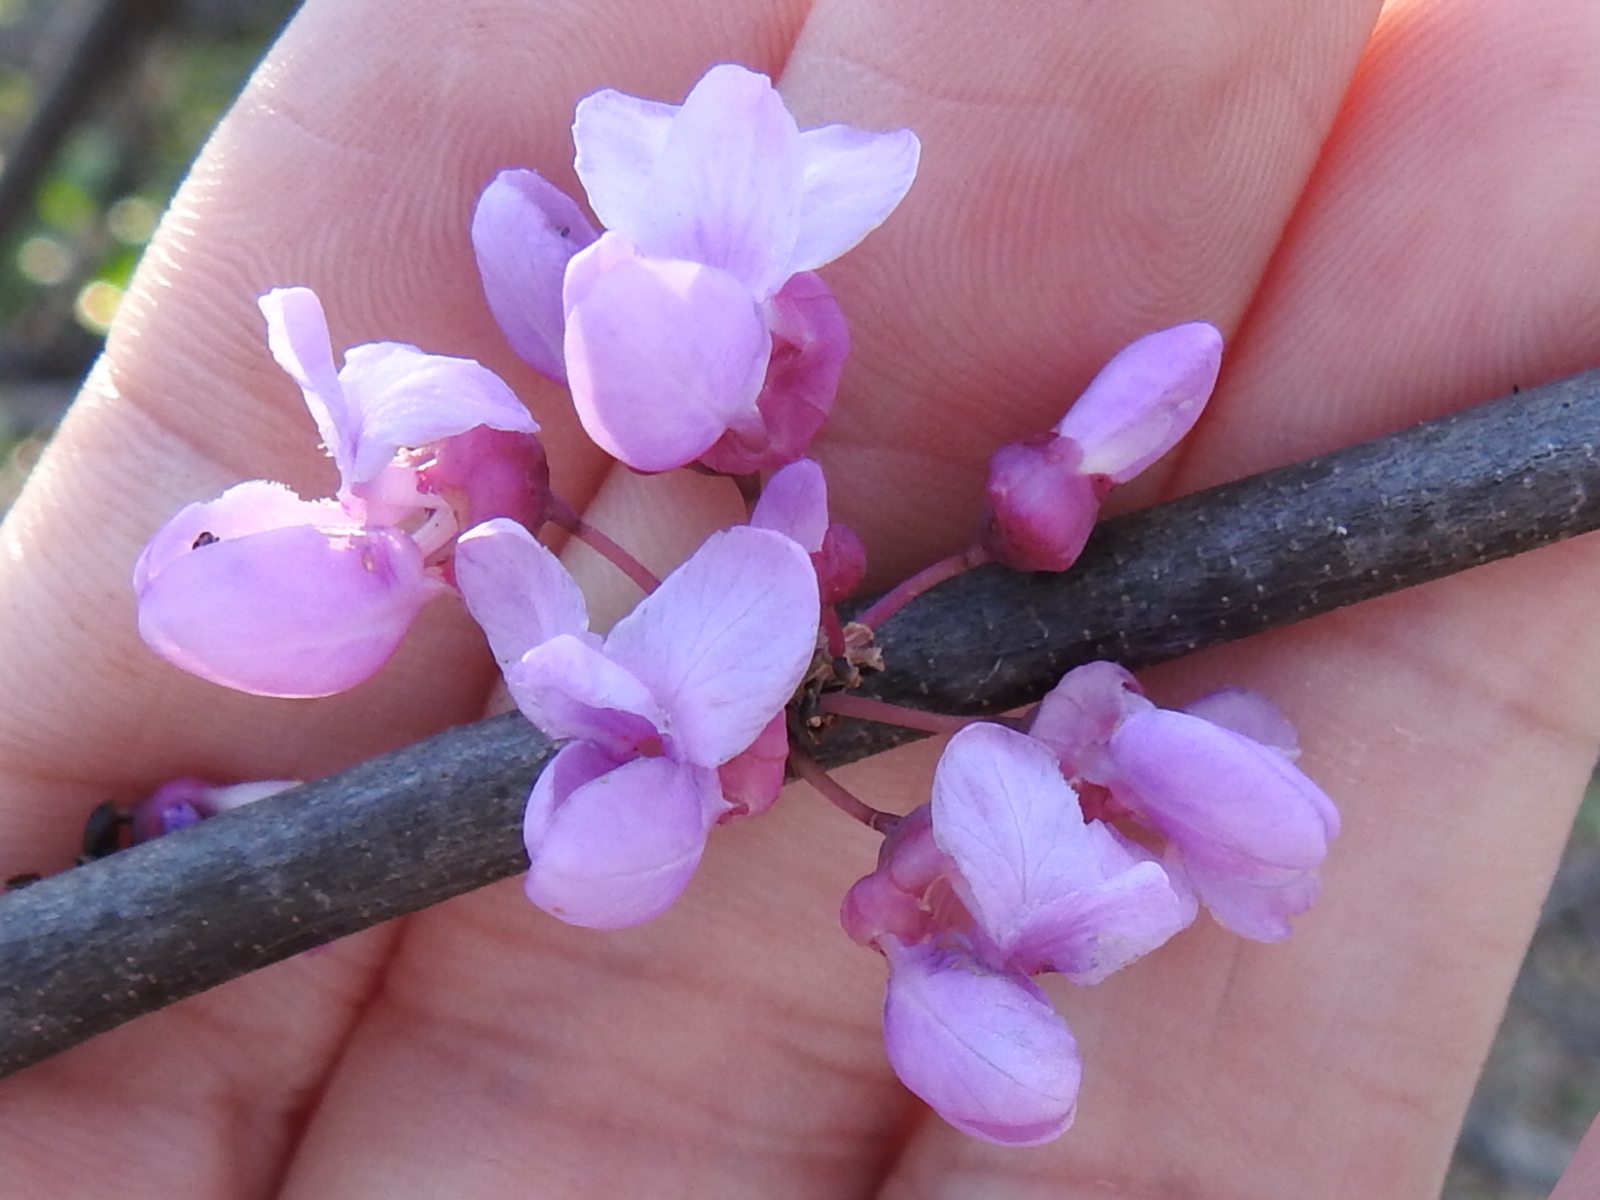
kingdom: Plantae
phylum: Tracheophyta
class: Magnoliopsida
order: Fabales
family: Fabaceae
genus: Cercis
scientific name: Cercis canadensis
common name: Eastern redbud
